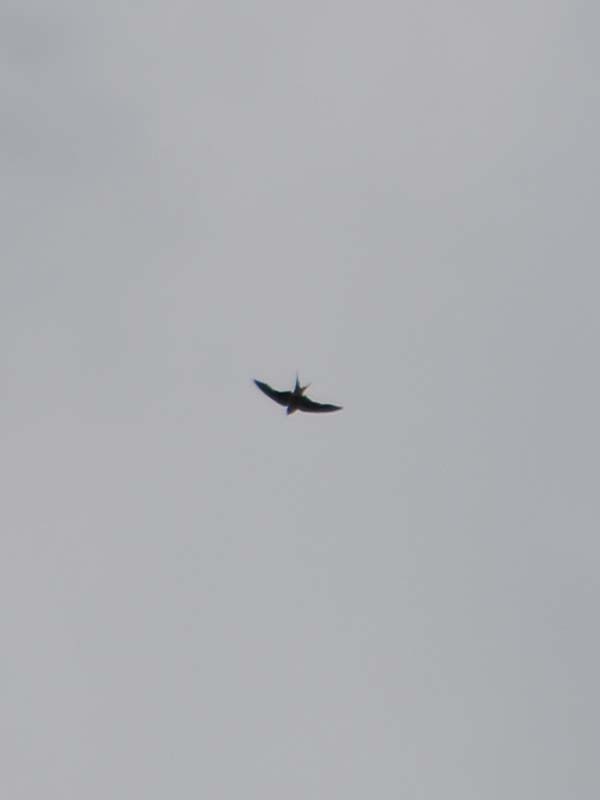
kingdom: Animalia
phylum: Chordata
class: Aves
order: Passeriformes
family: Hirundinidae
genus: Hirundo
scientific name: Hirundo rustica
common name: Barn swallow
